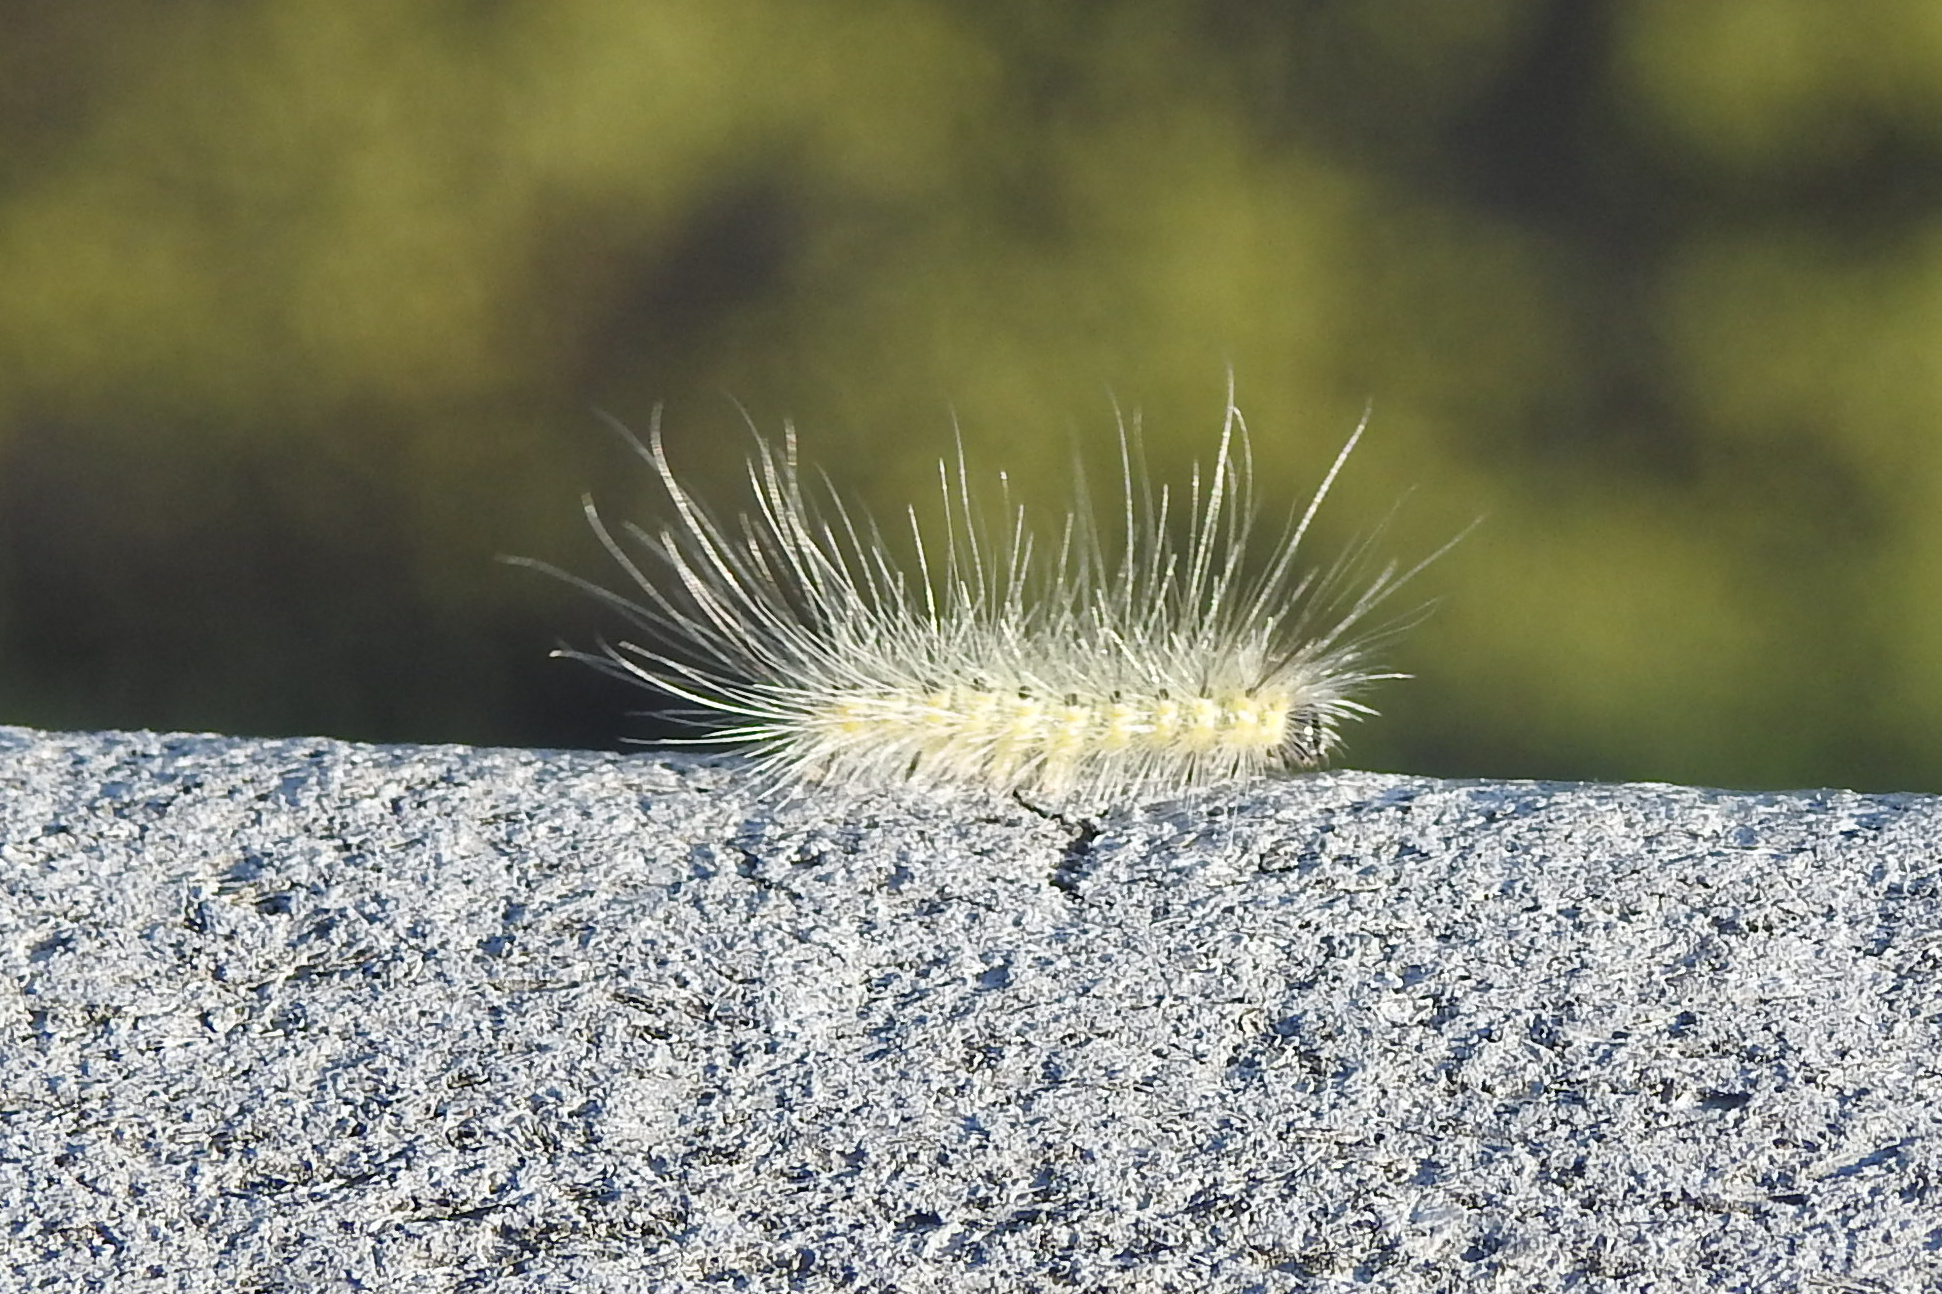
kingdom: Animalia
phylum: Arthropoda
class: Insecta
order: Lepidoptera
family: Erebidae
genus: Hyphantria
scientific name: Hyphantria cunea
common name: American white moth
